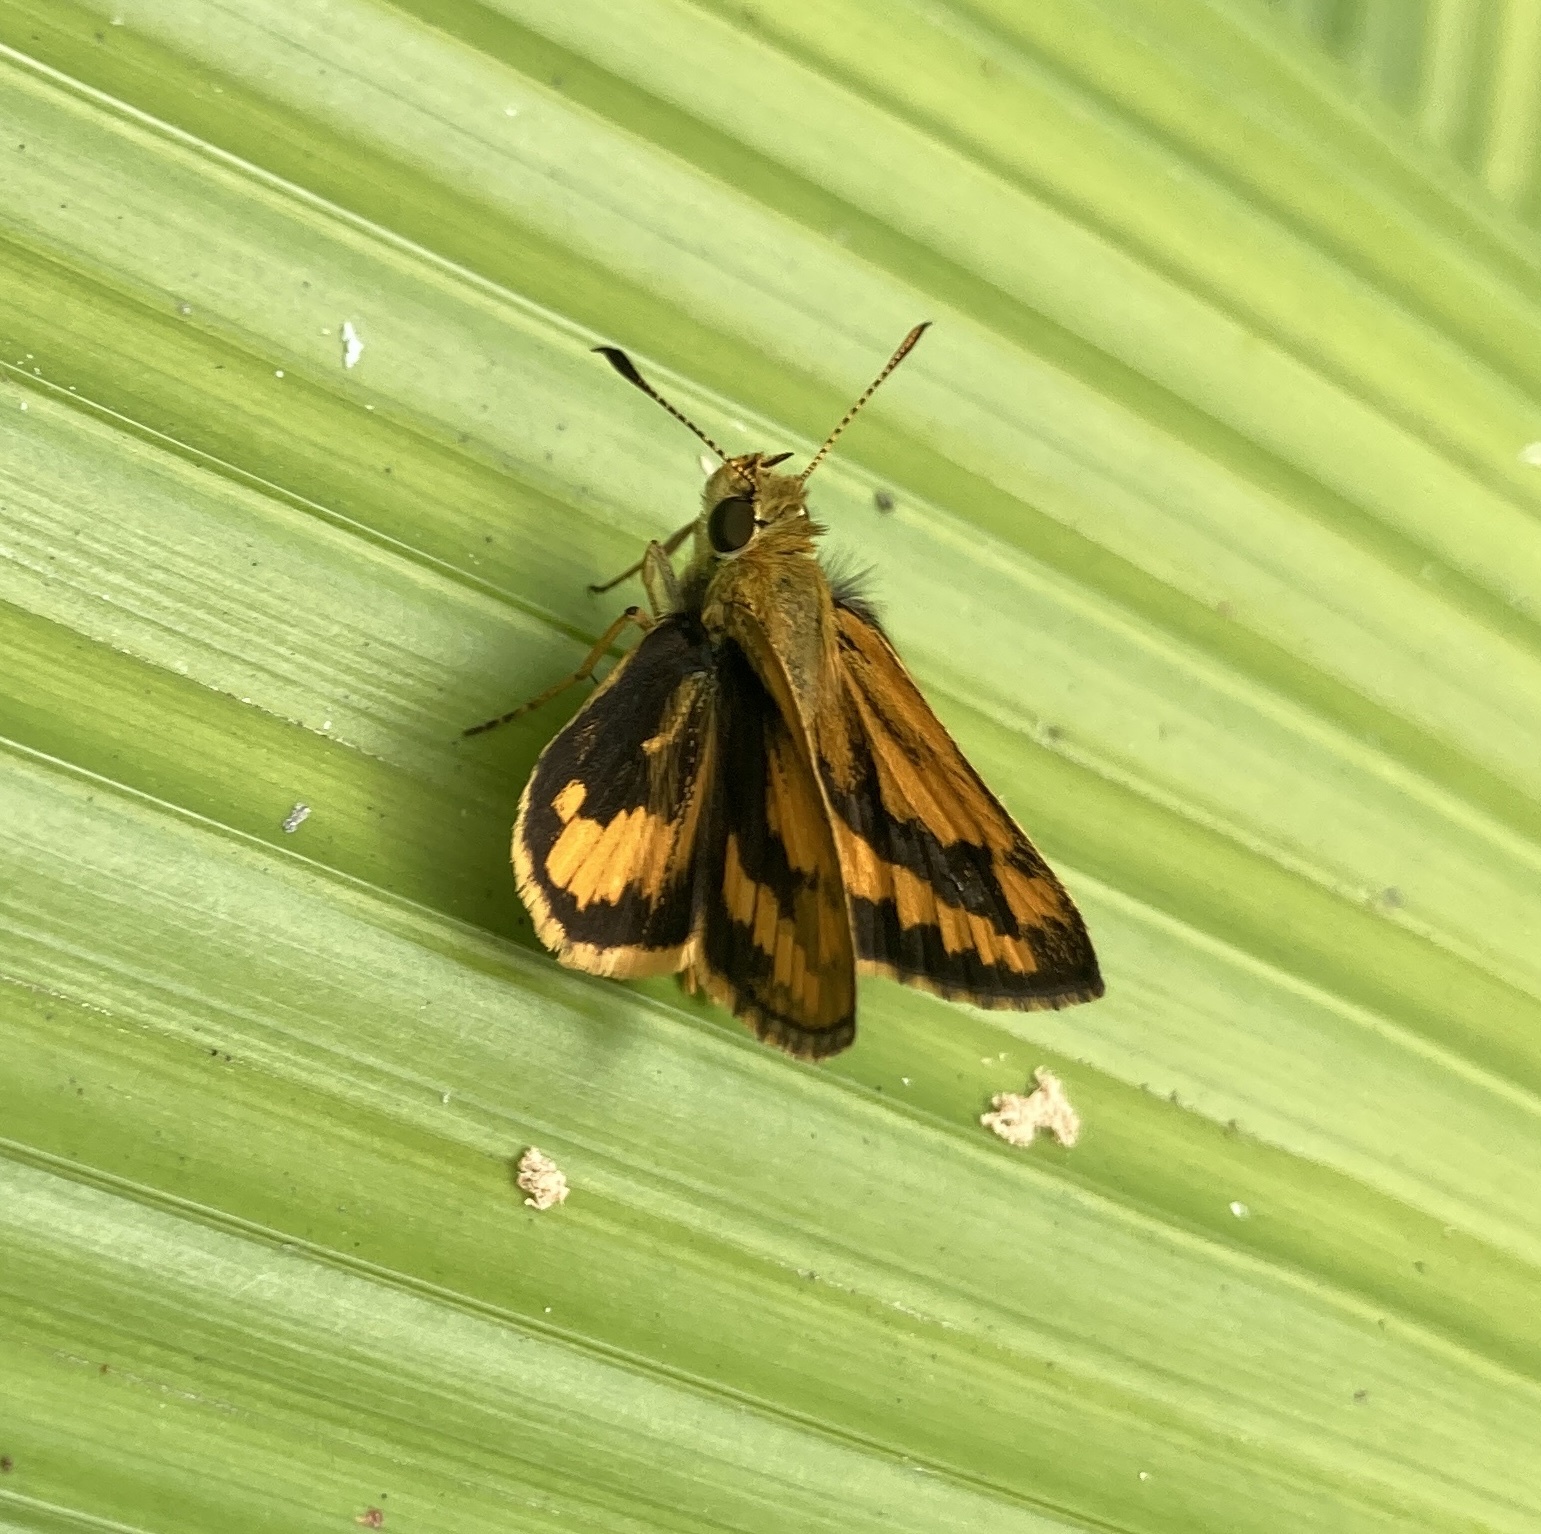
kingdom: Animalia
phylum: Arthropoda
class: Insecta
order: Lepidoptera
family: Hesperiidae
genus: Suniana
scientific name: Suniana sunias
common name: Wide-brand grass-dart
